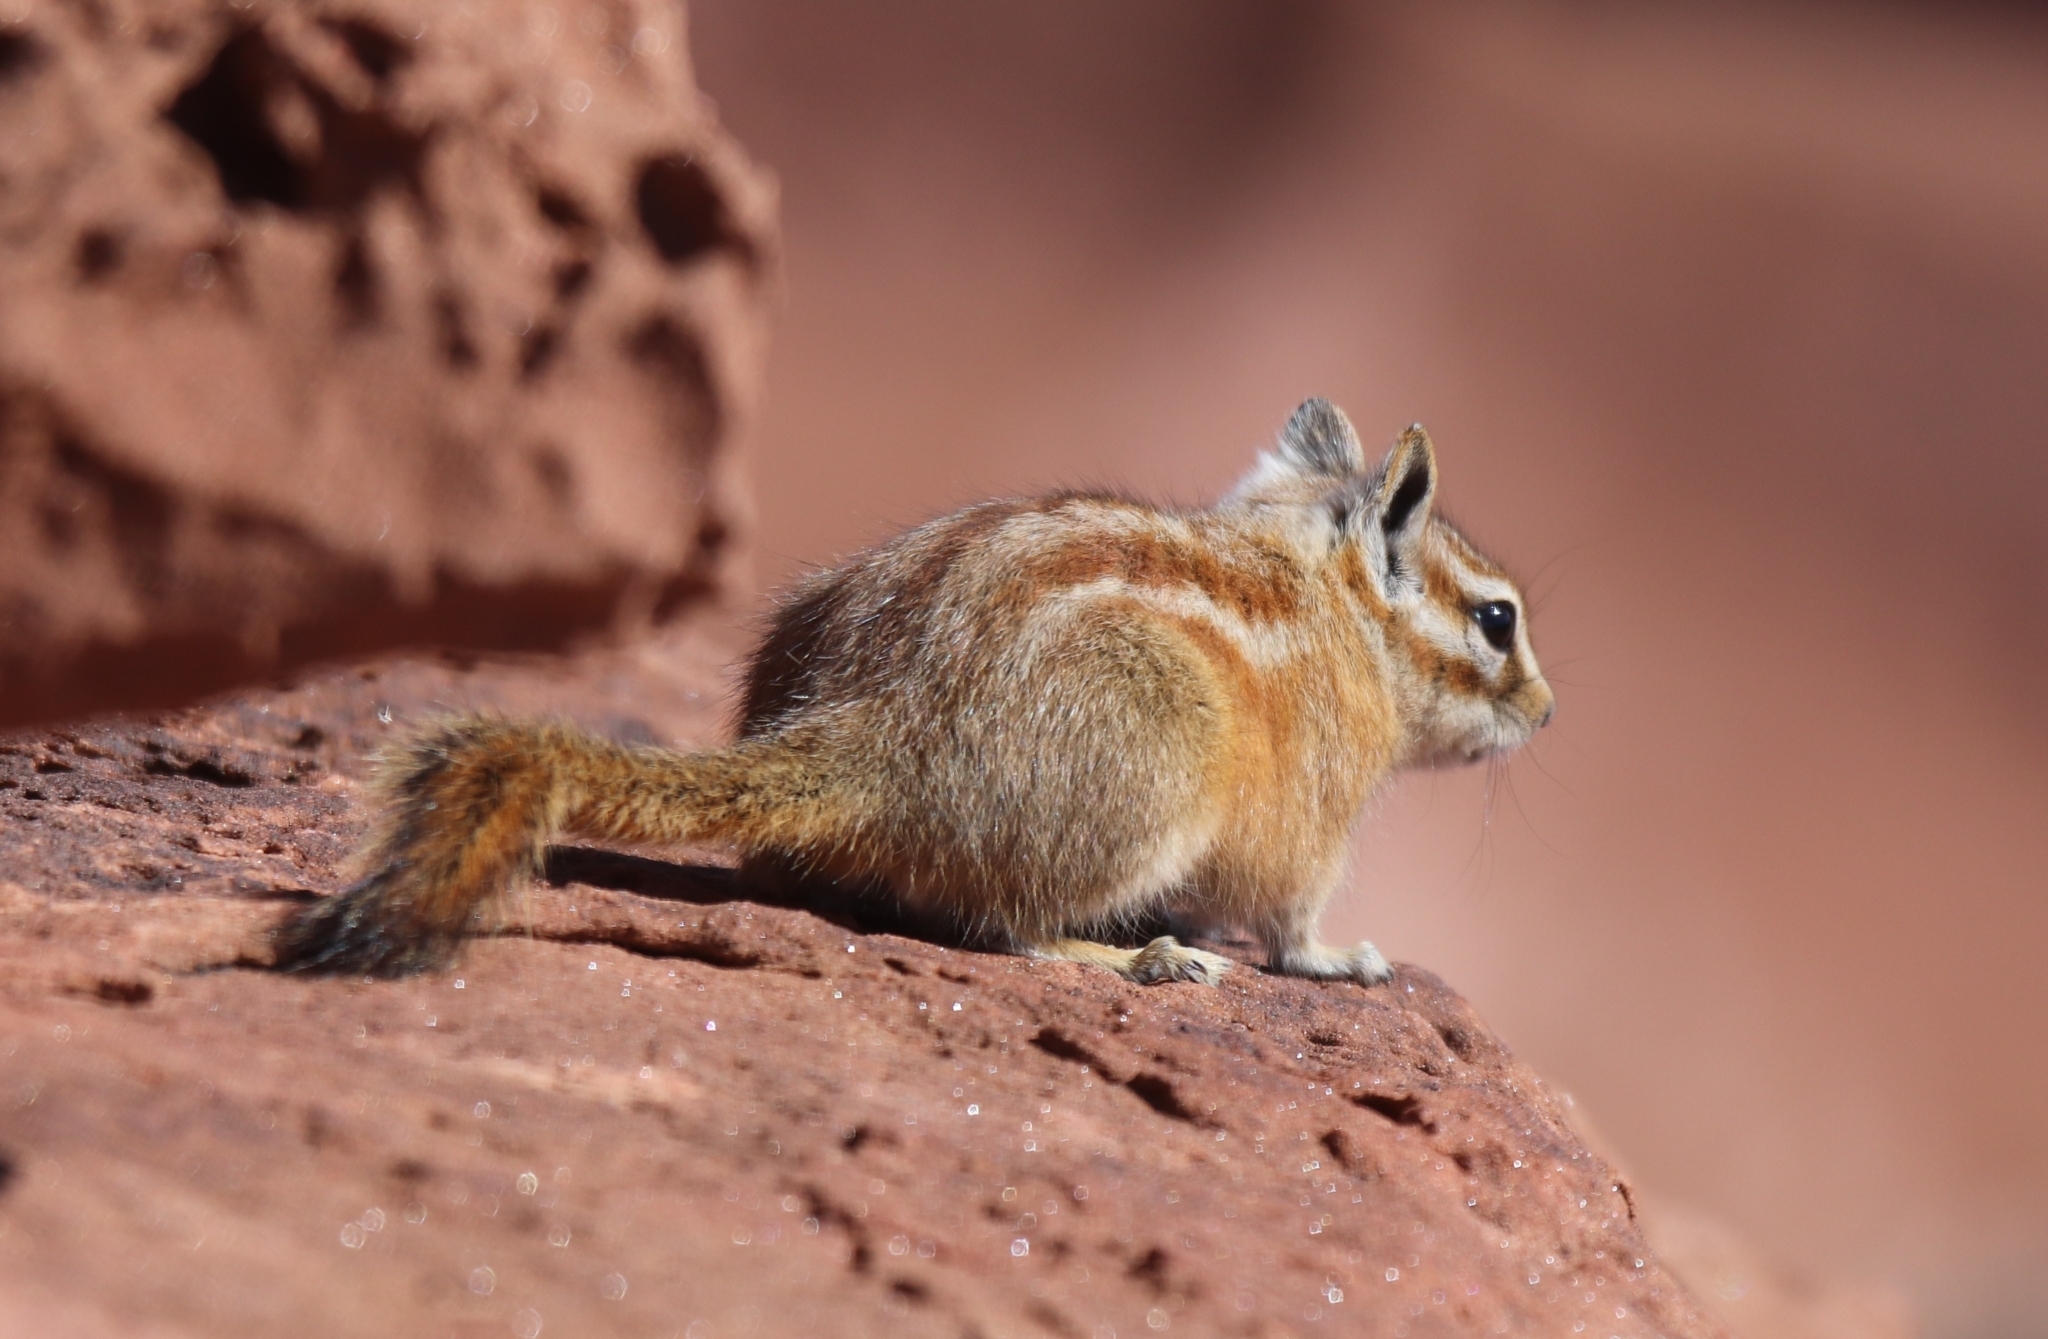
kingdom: Animalia
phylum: Chordata
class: Mammalia
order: Rodentia
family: Sciuridae
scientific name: Sciuridae
